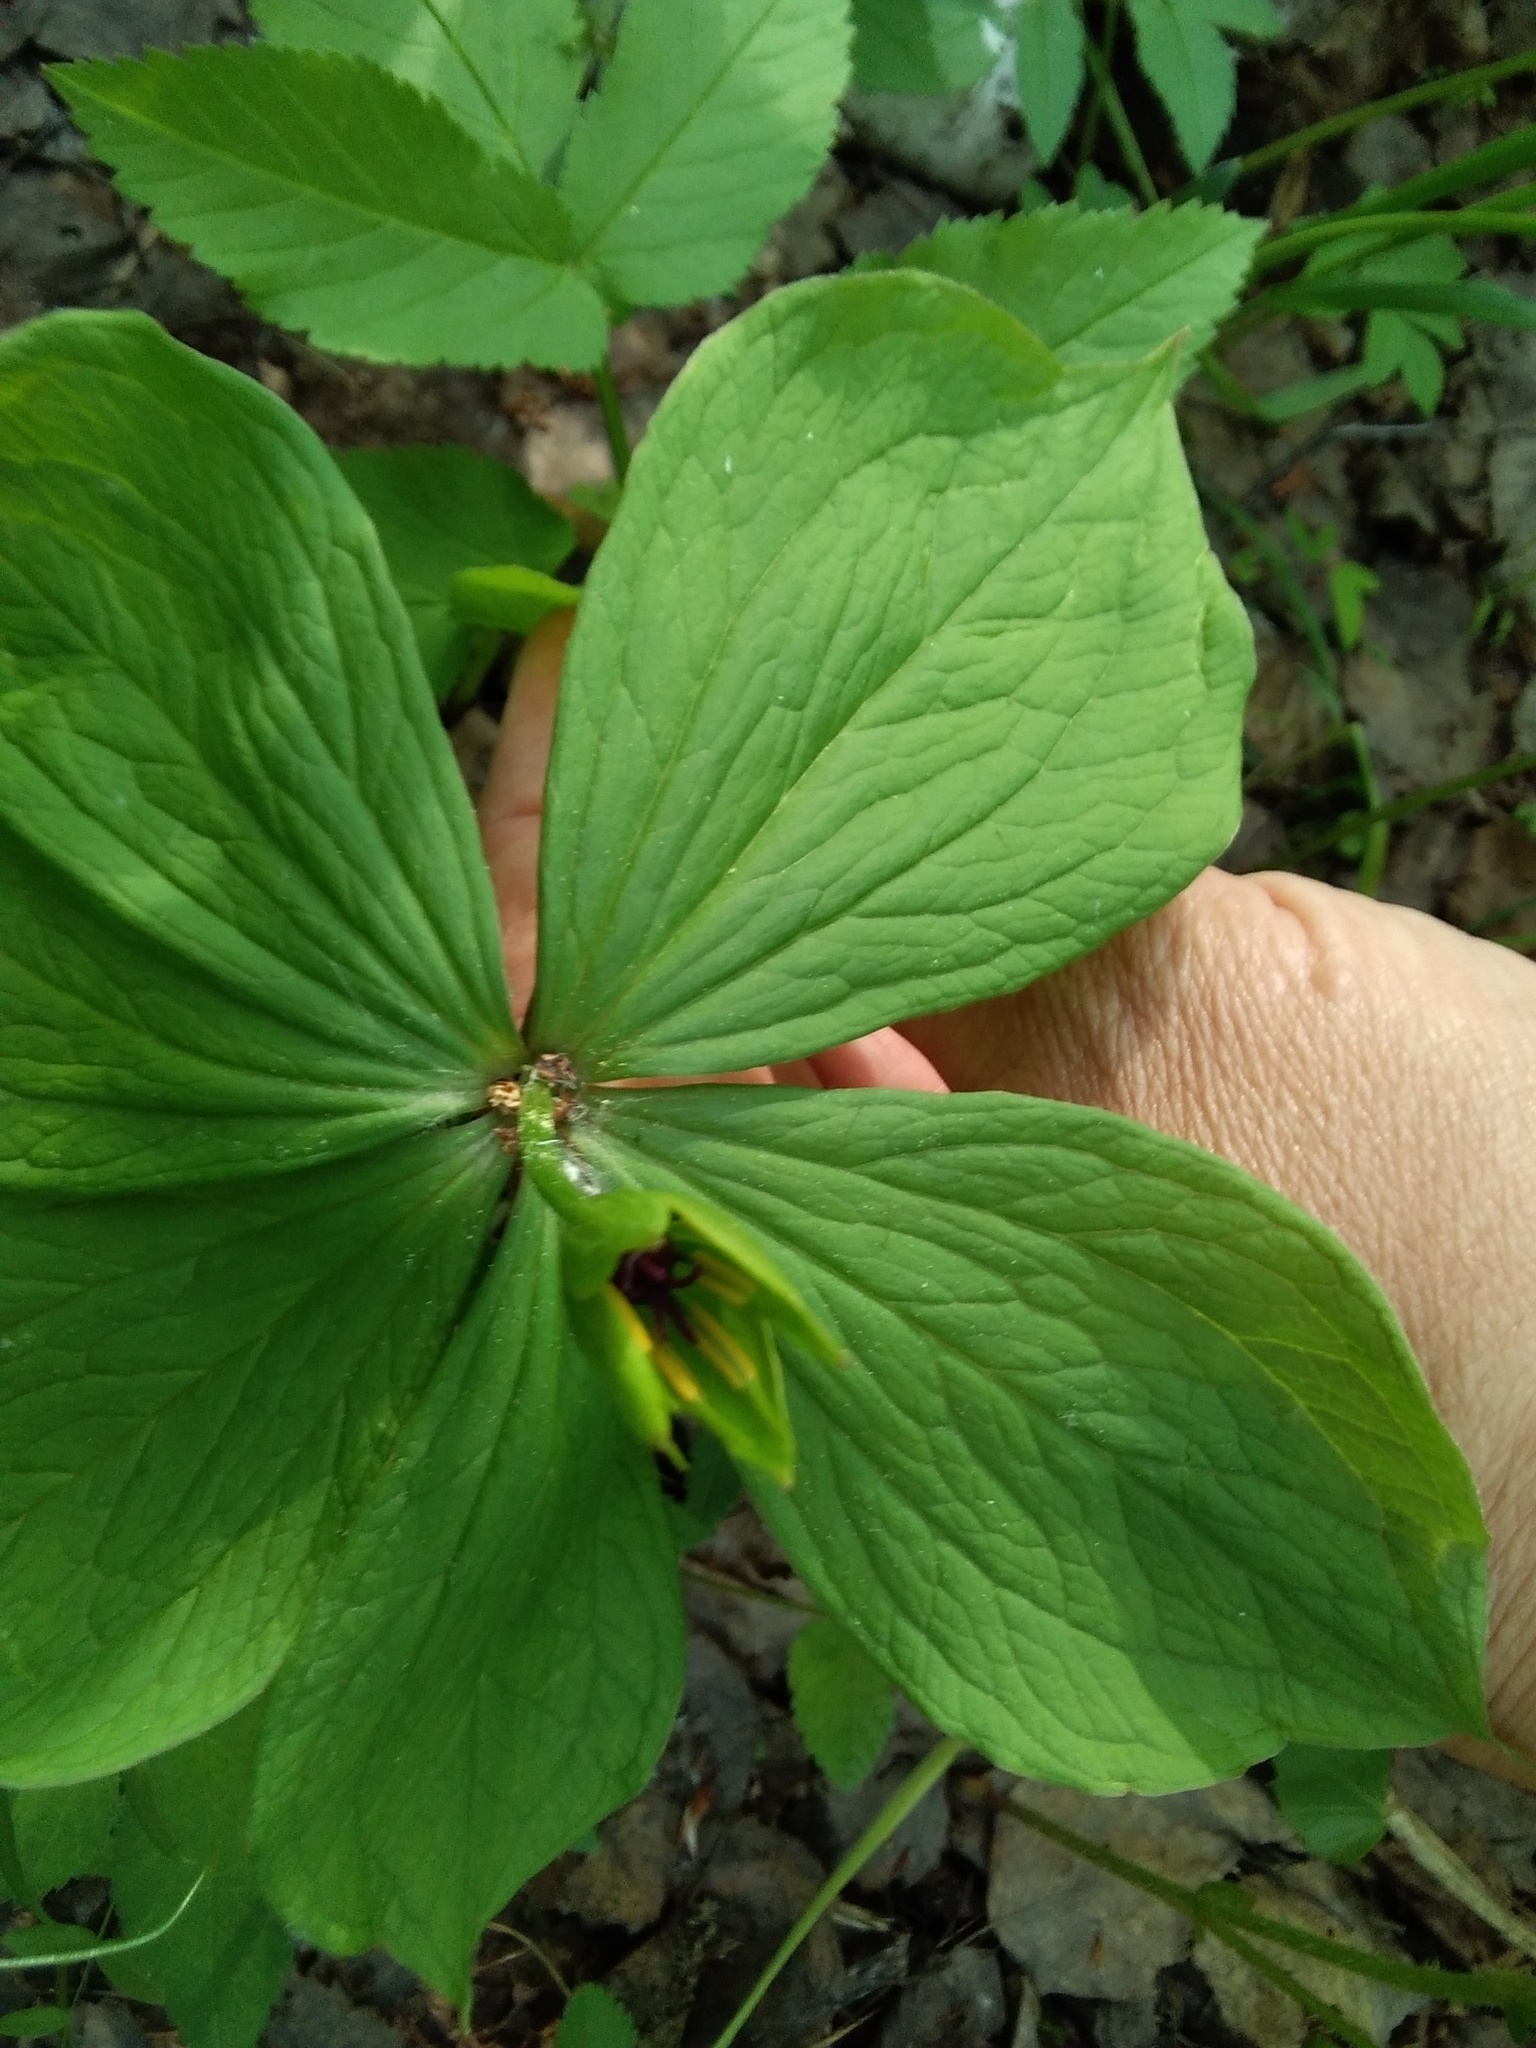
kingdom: Plantae
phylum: Tracheophyta
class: Liliopsida
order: Liliales
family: Melanthiaceae
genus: Paris
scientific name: Paris verticillata
